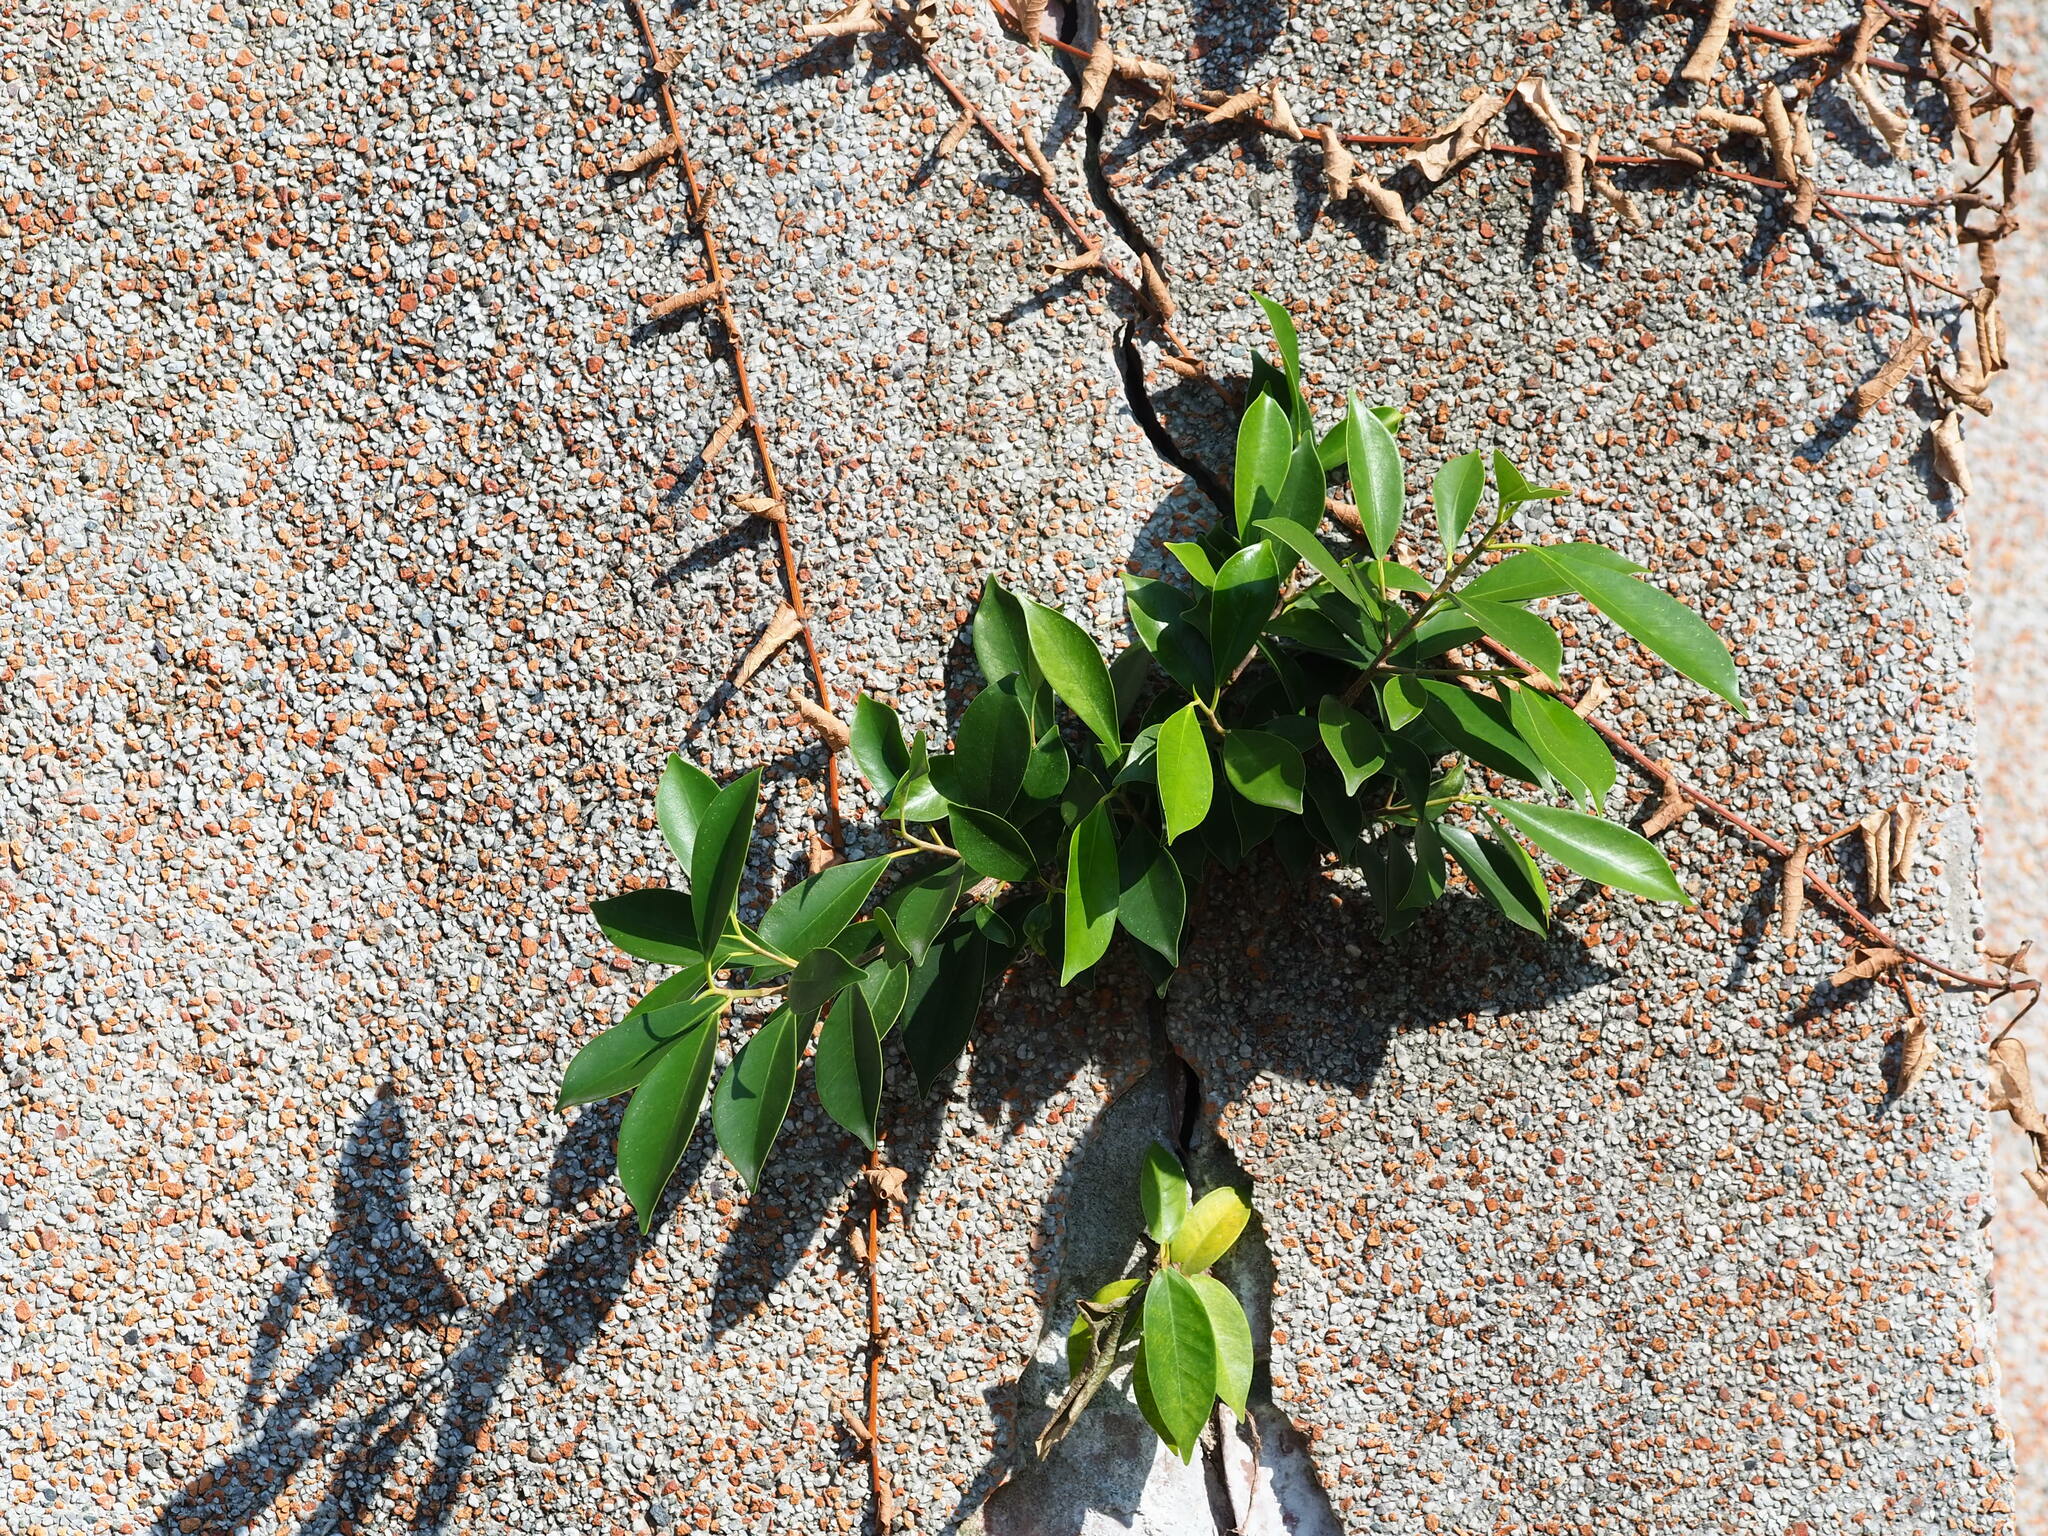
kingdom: Plantae
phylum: Tracheophyta
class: Magnoliopsida
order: Rosales
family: Moraceae
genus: Ficus
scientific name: Ficus microcarpa
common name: Chinese banyan
